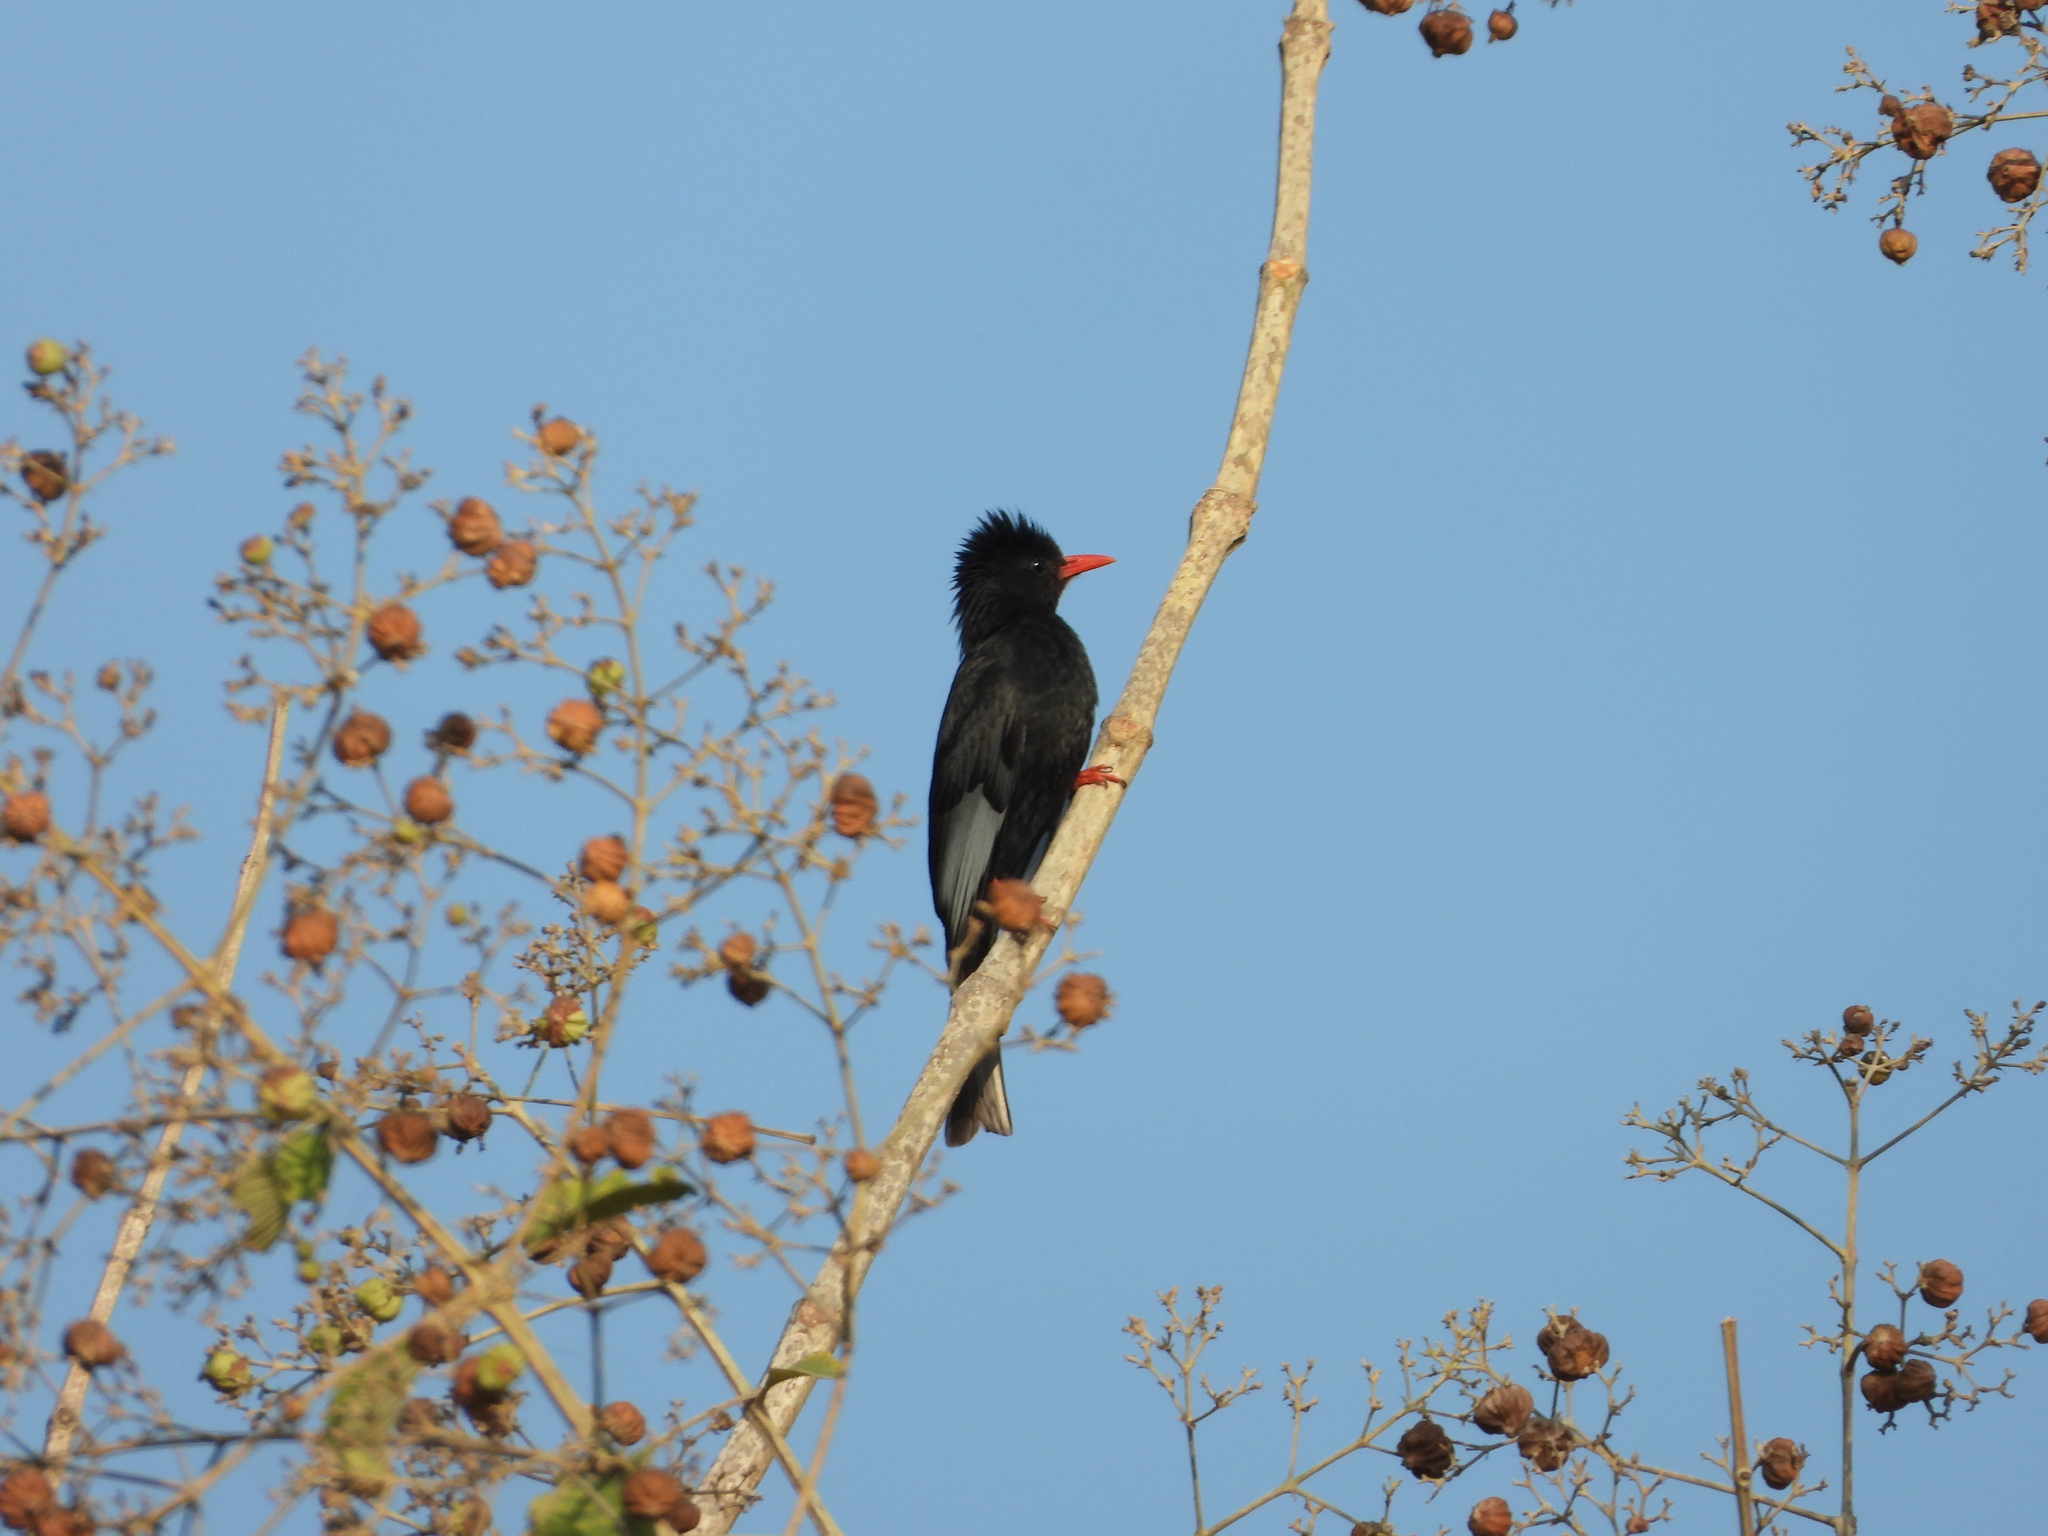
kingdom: Animalia
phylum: Chordata
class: Aves
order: Passeriformes
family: Pycnonotidae
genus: Hypsipetes
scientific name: Hypsipetes leucocephalus
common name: Black bulbul
